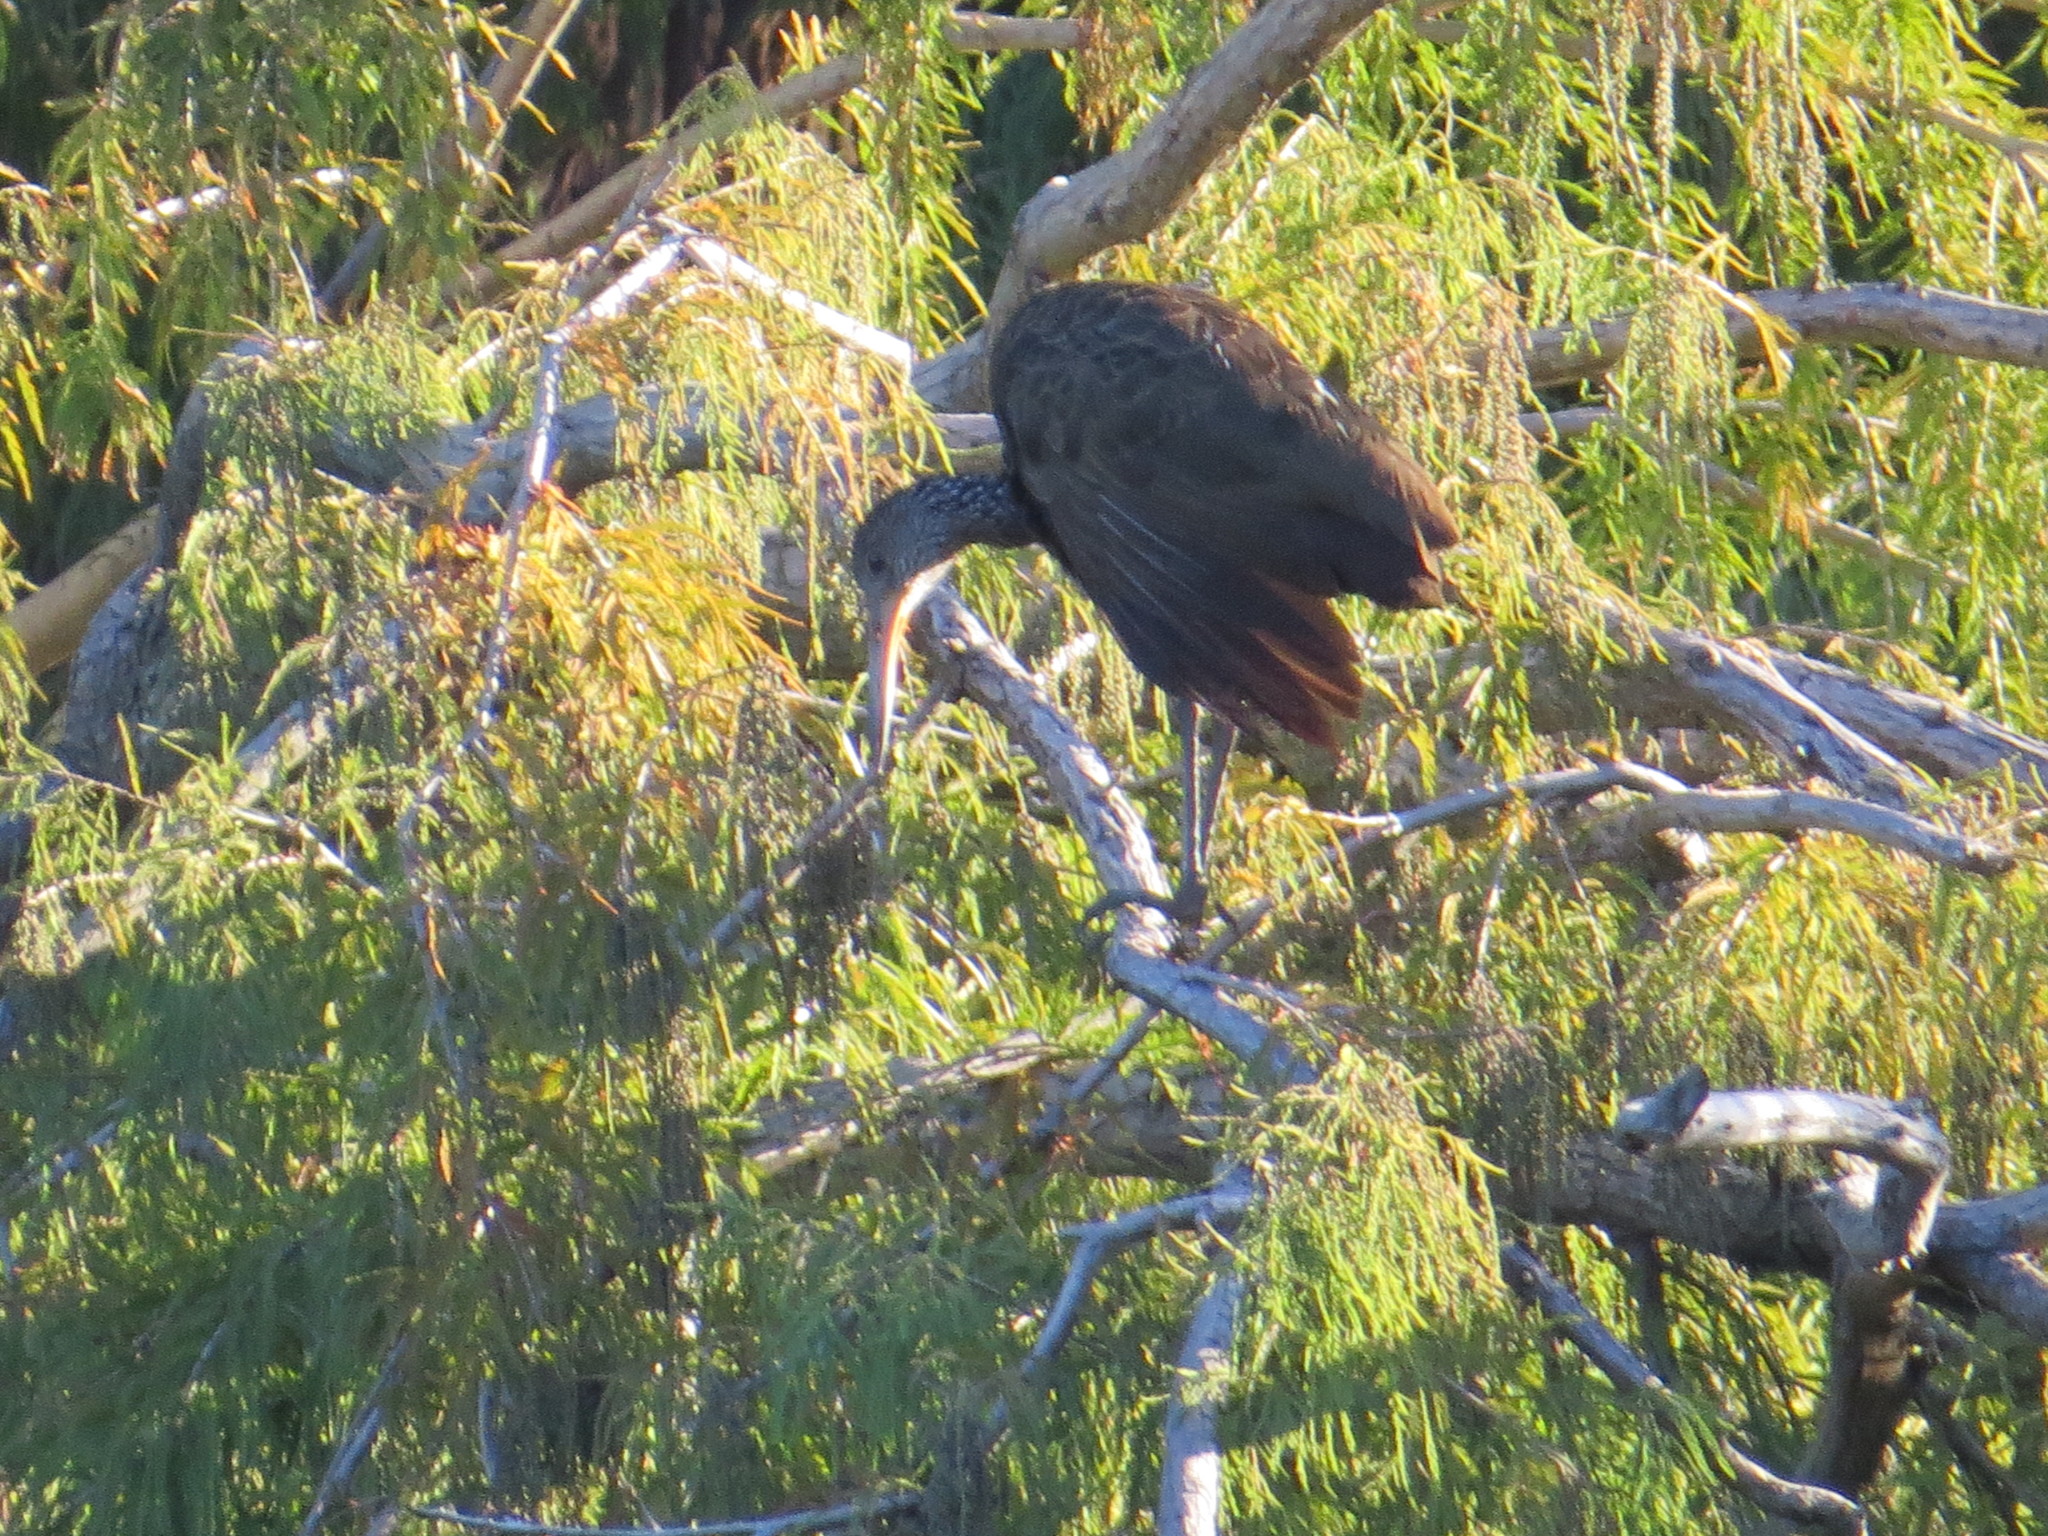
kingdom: Animalia
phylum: Chordata
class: Aves
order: Gruiformes
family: Aramidae
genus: Aramus
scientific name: Aramus guarauna
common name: Limpkin
